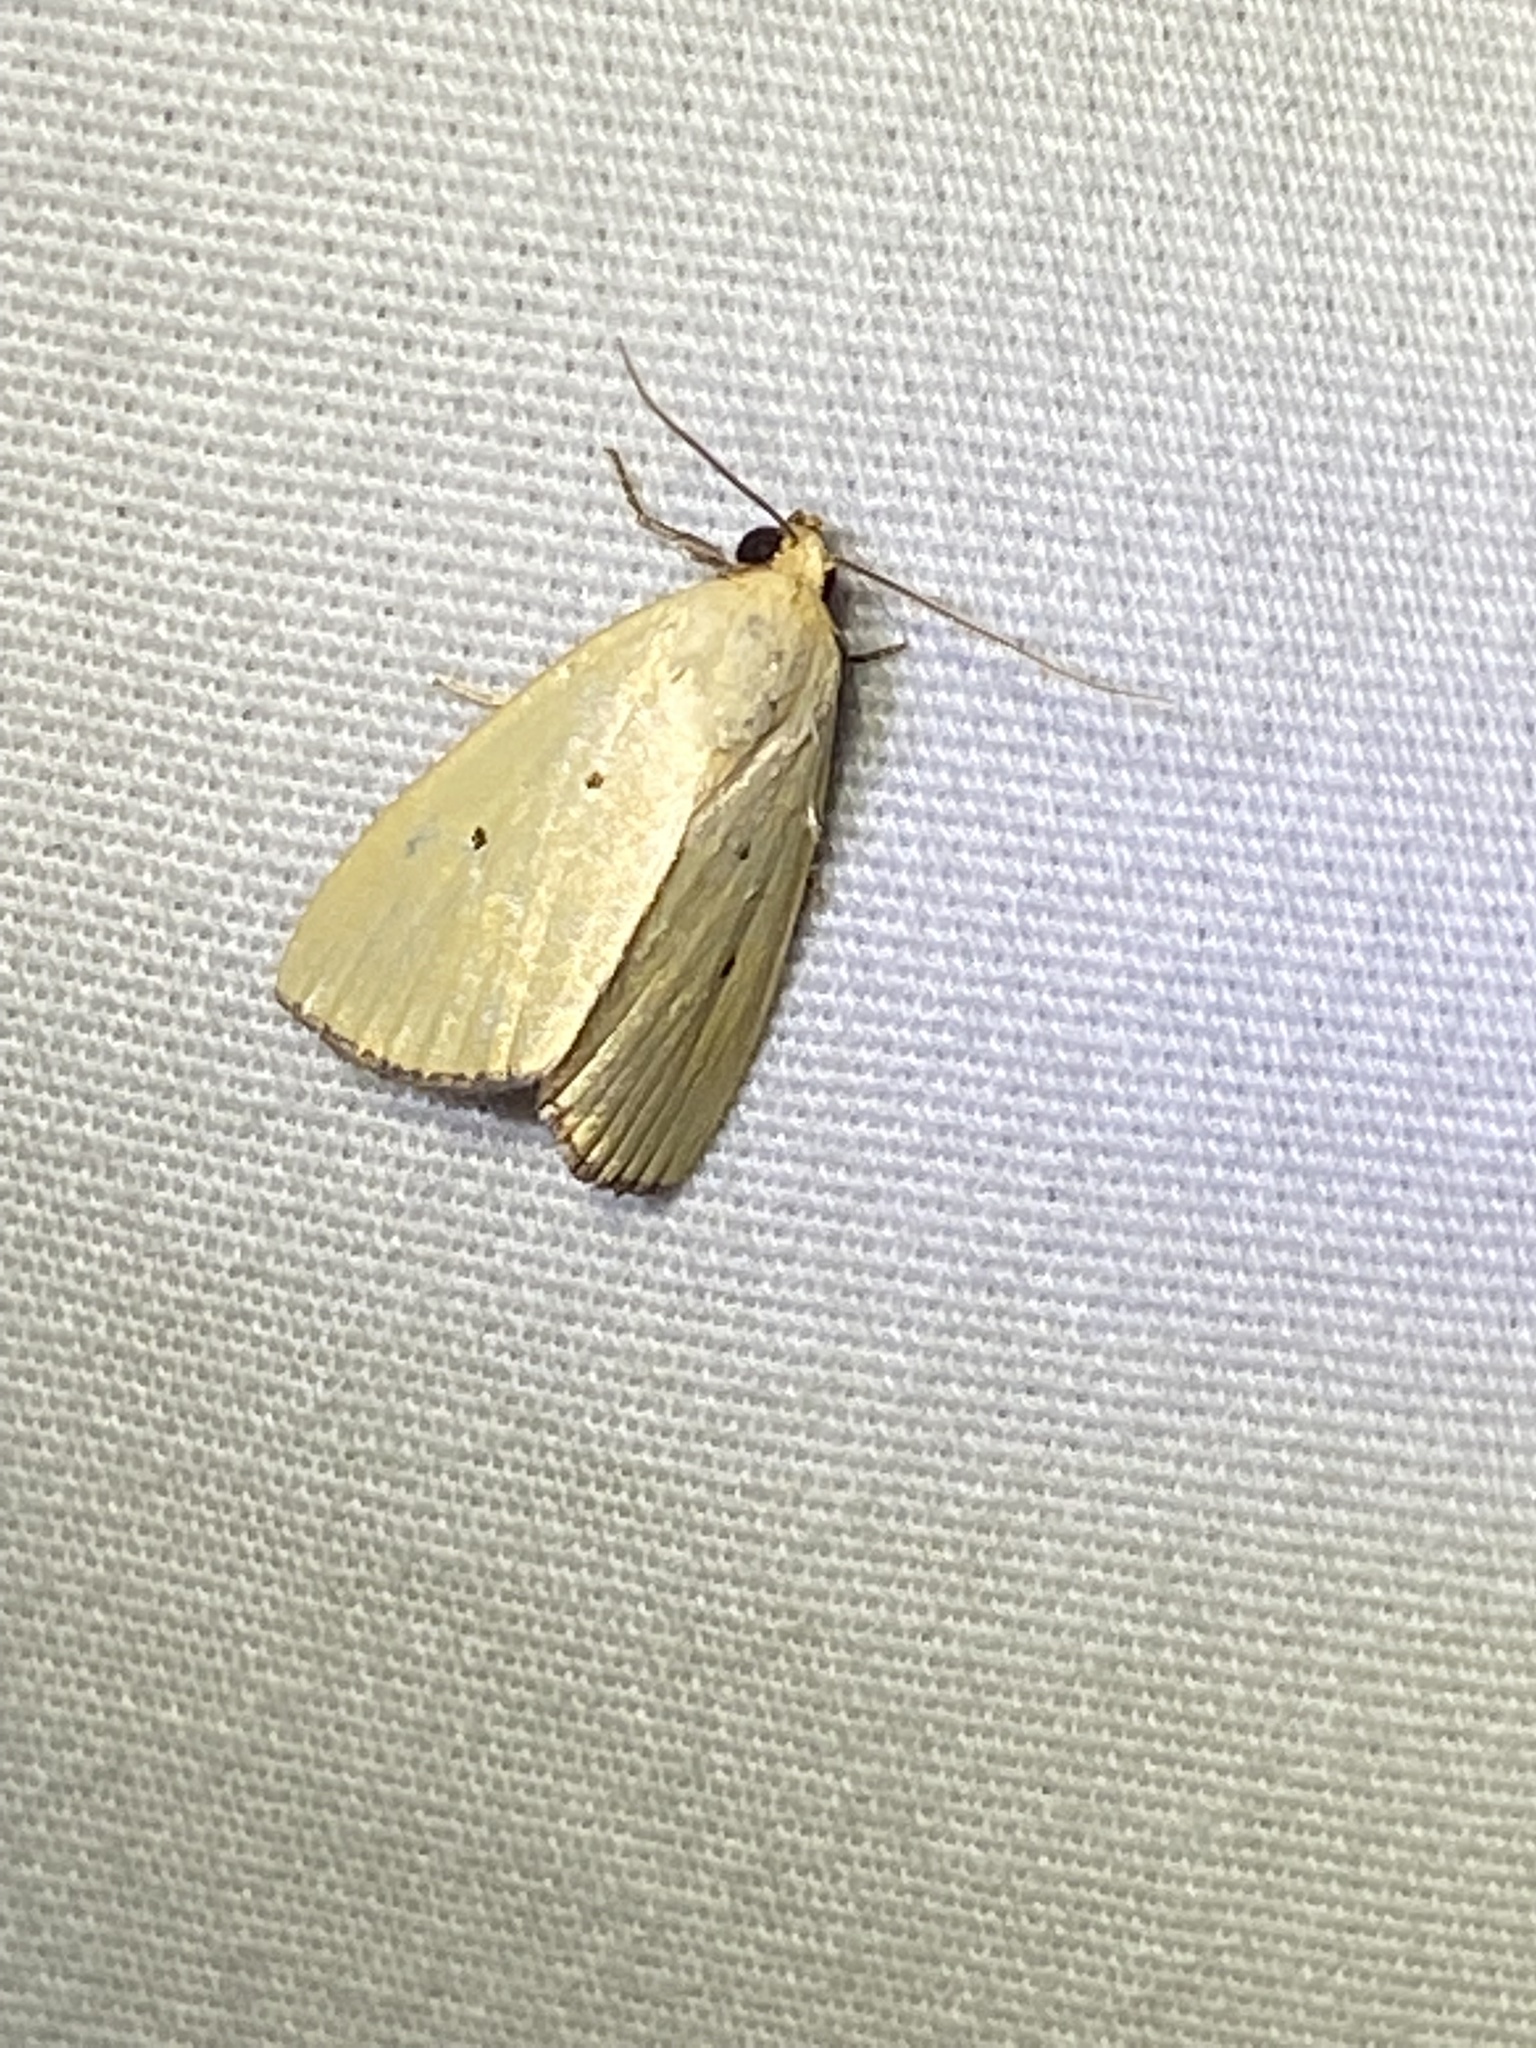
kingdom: Animalia
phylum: Arthropoda
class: Insecta
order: Lepidoptera
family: Noctuidae
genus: Marimatha
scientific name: Marimatha nigrofimbria
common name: Black-bordered lemon moth
